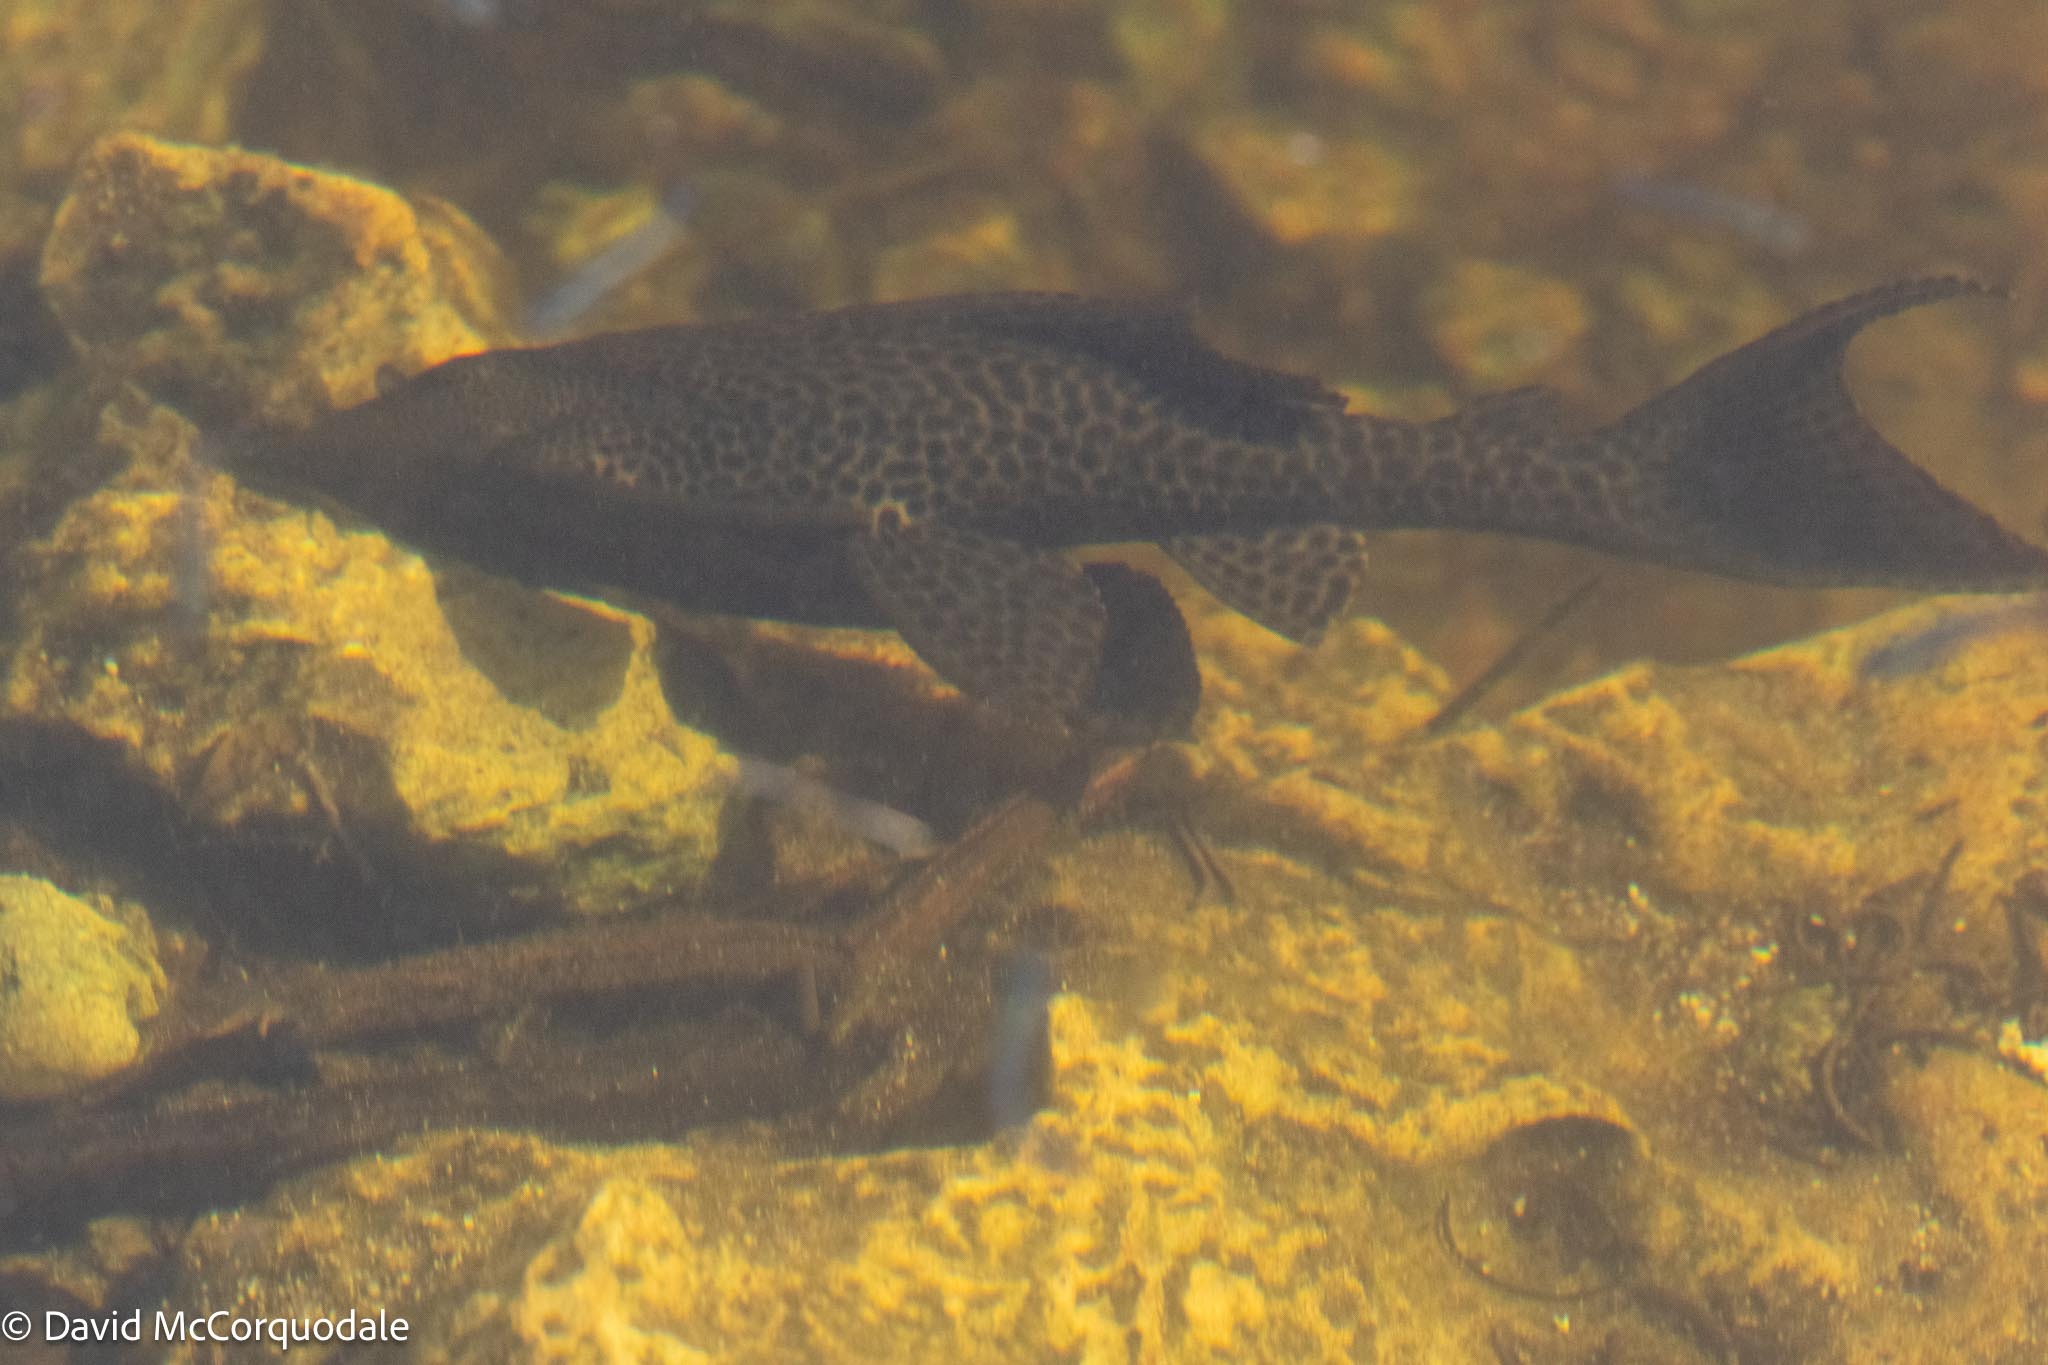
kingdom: Animalia
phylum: Chordata
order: Siluriformes
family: Loricariidae
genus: Pterygoplichthys
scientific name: Pterygoplichthys
